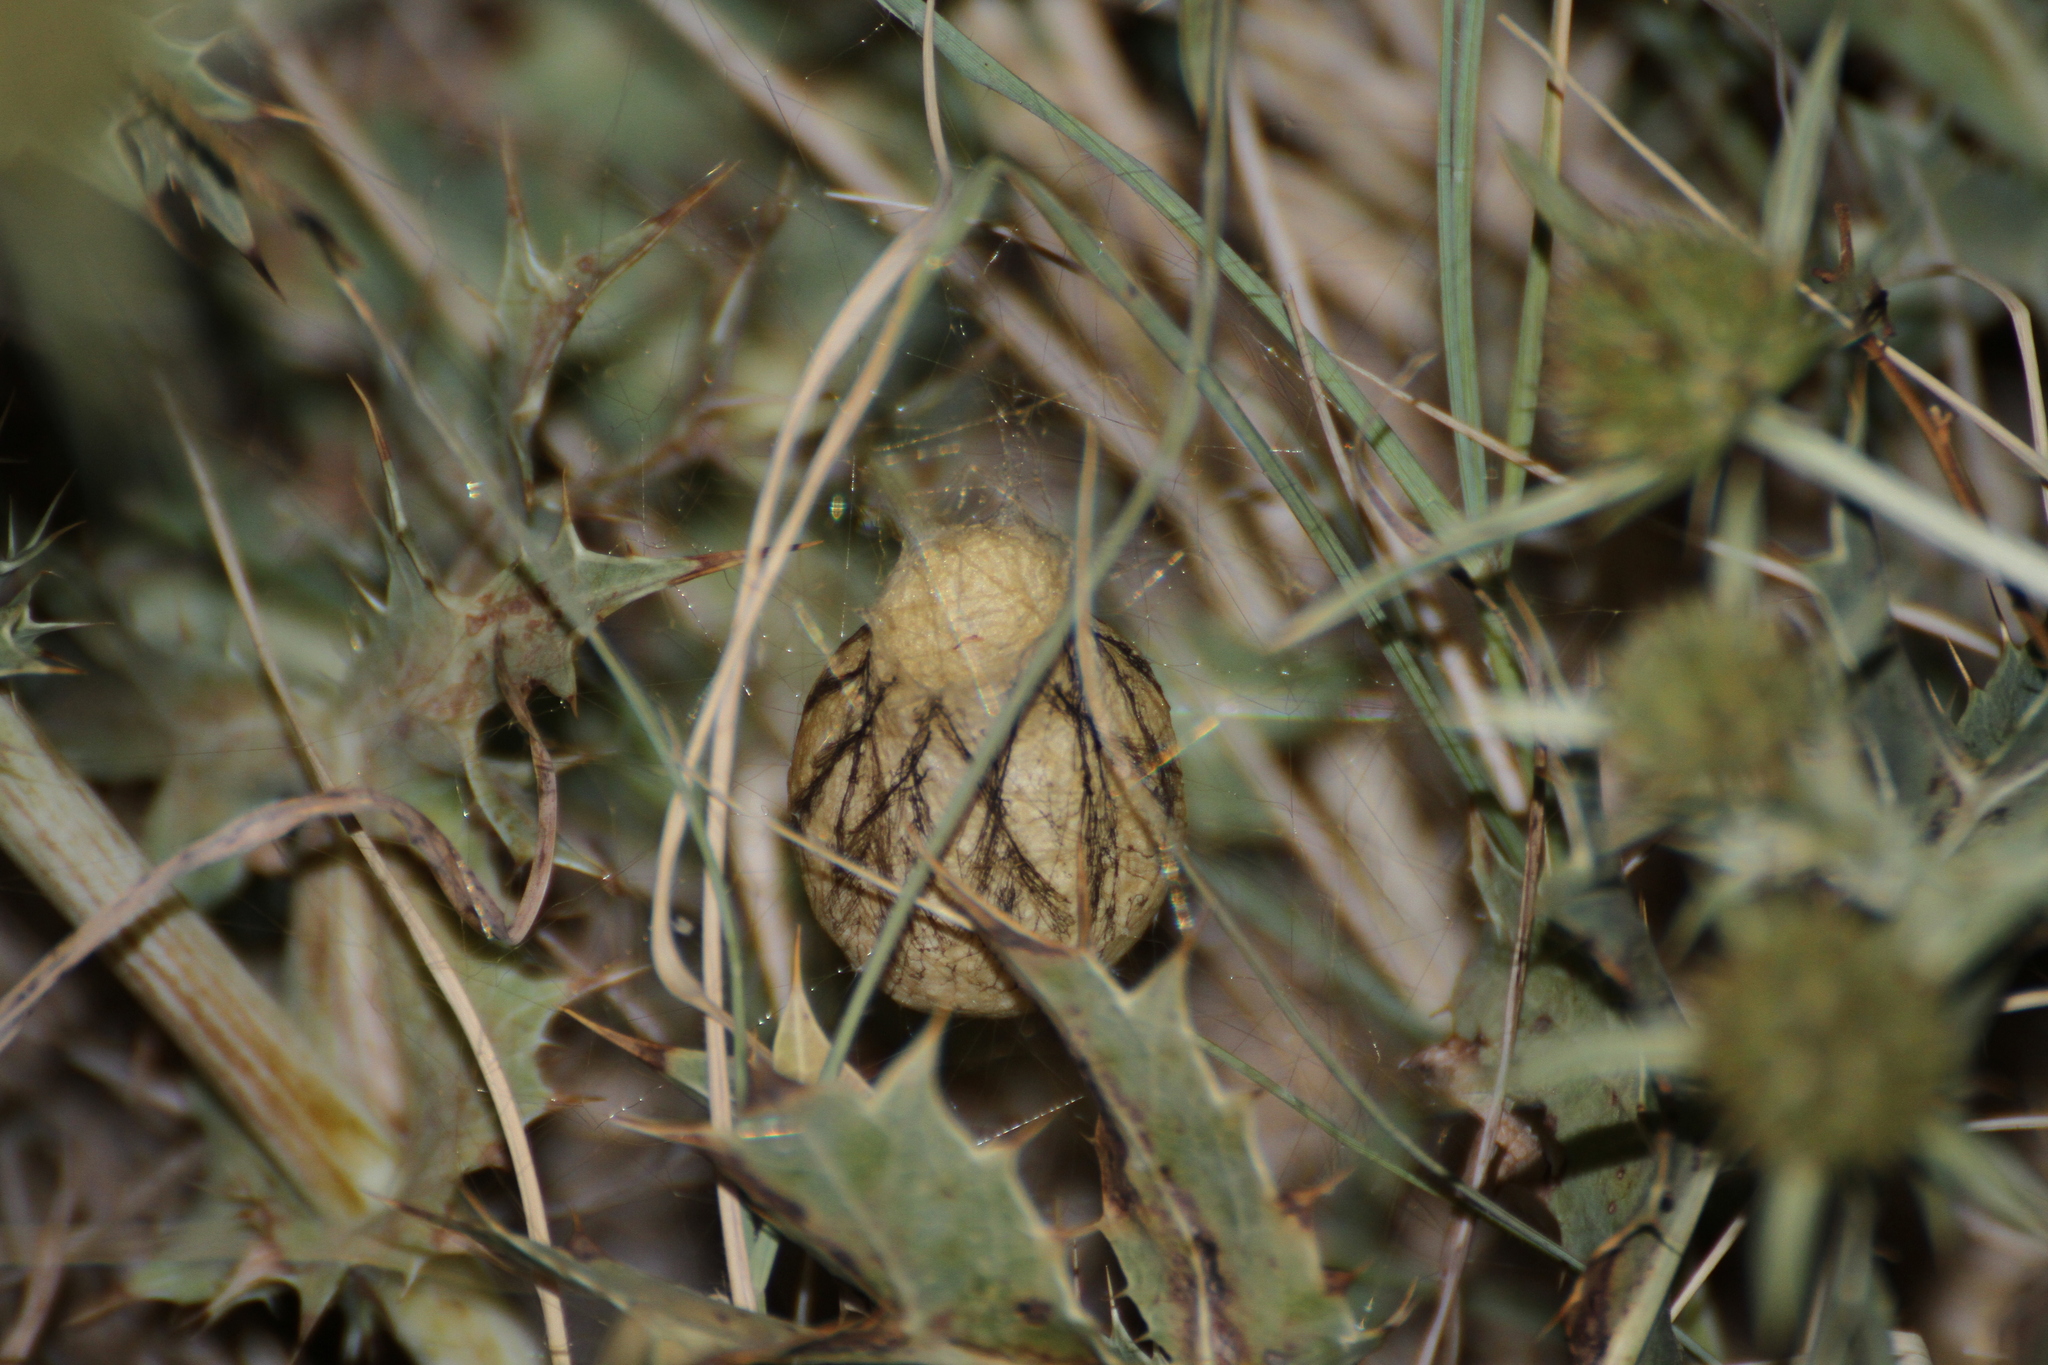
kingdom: Animalia
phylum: Arthropoda
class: Arachnida
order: Araneae
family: Araneidae
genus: Argiope
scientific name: Argiope bruennichi
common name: Wasp spider
